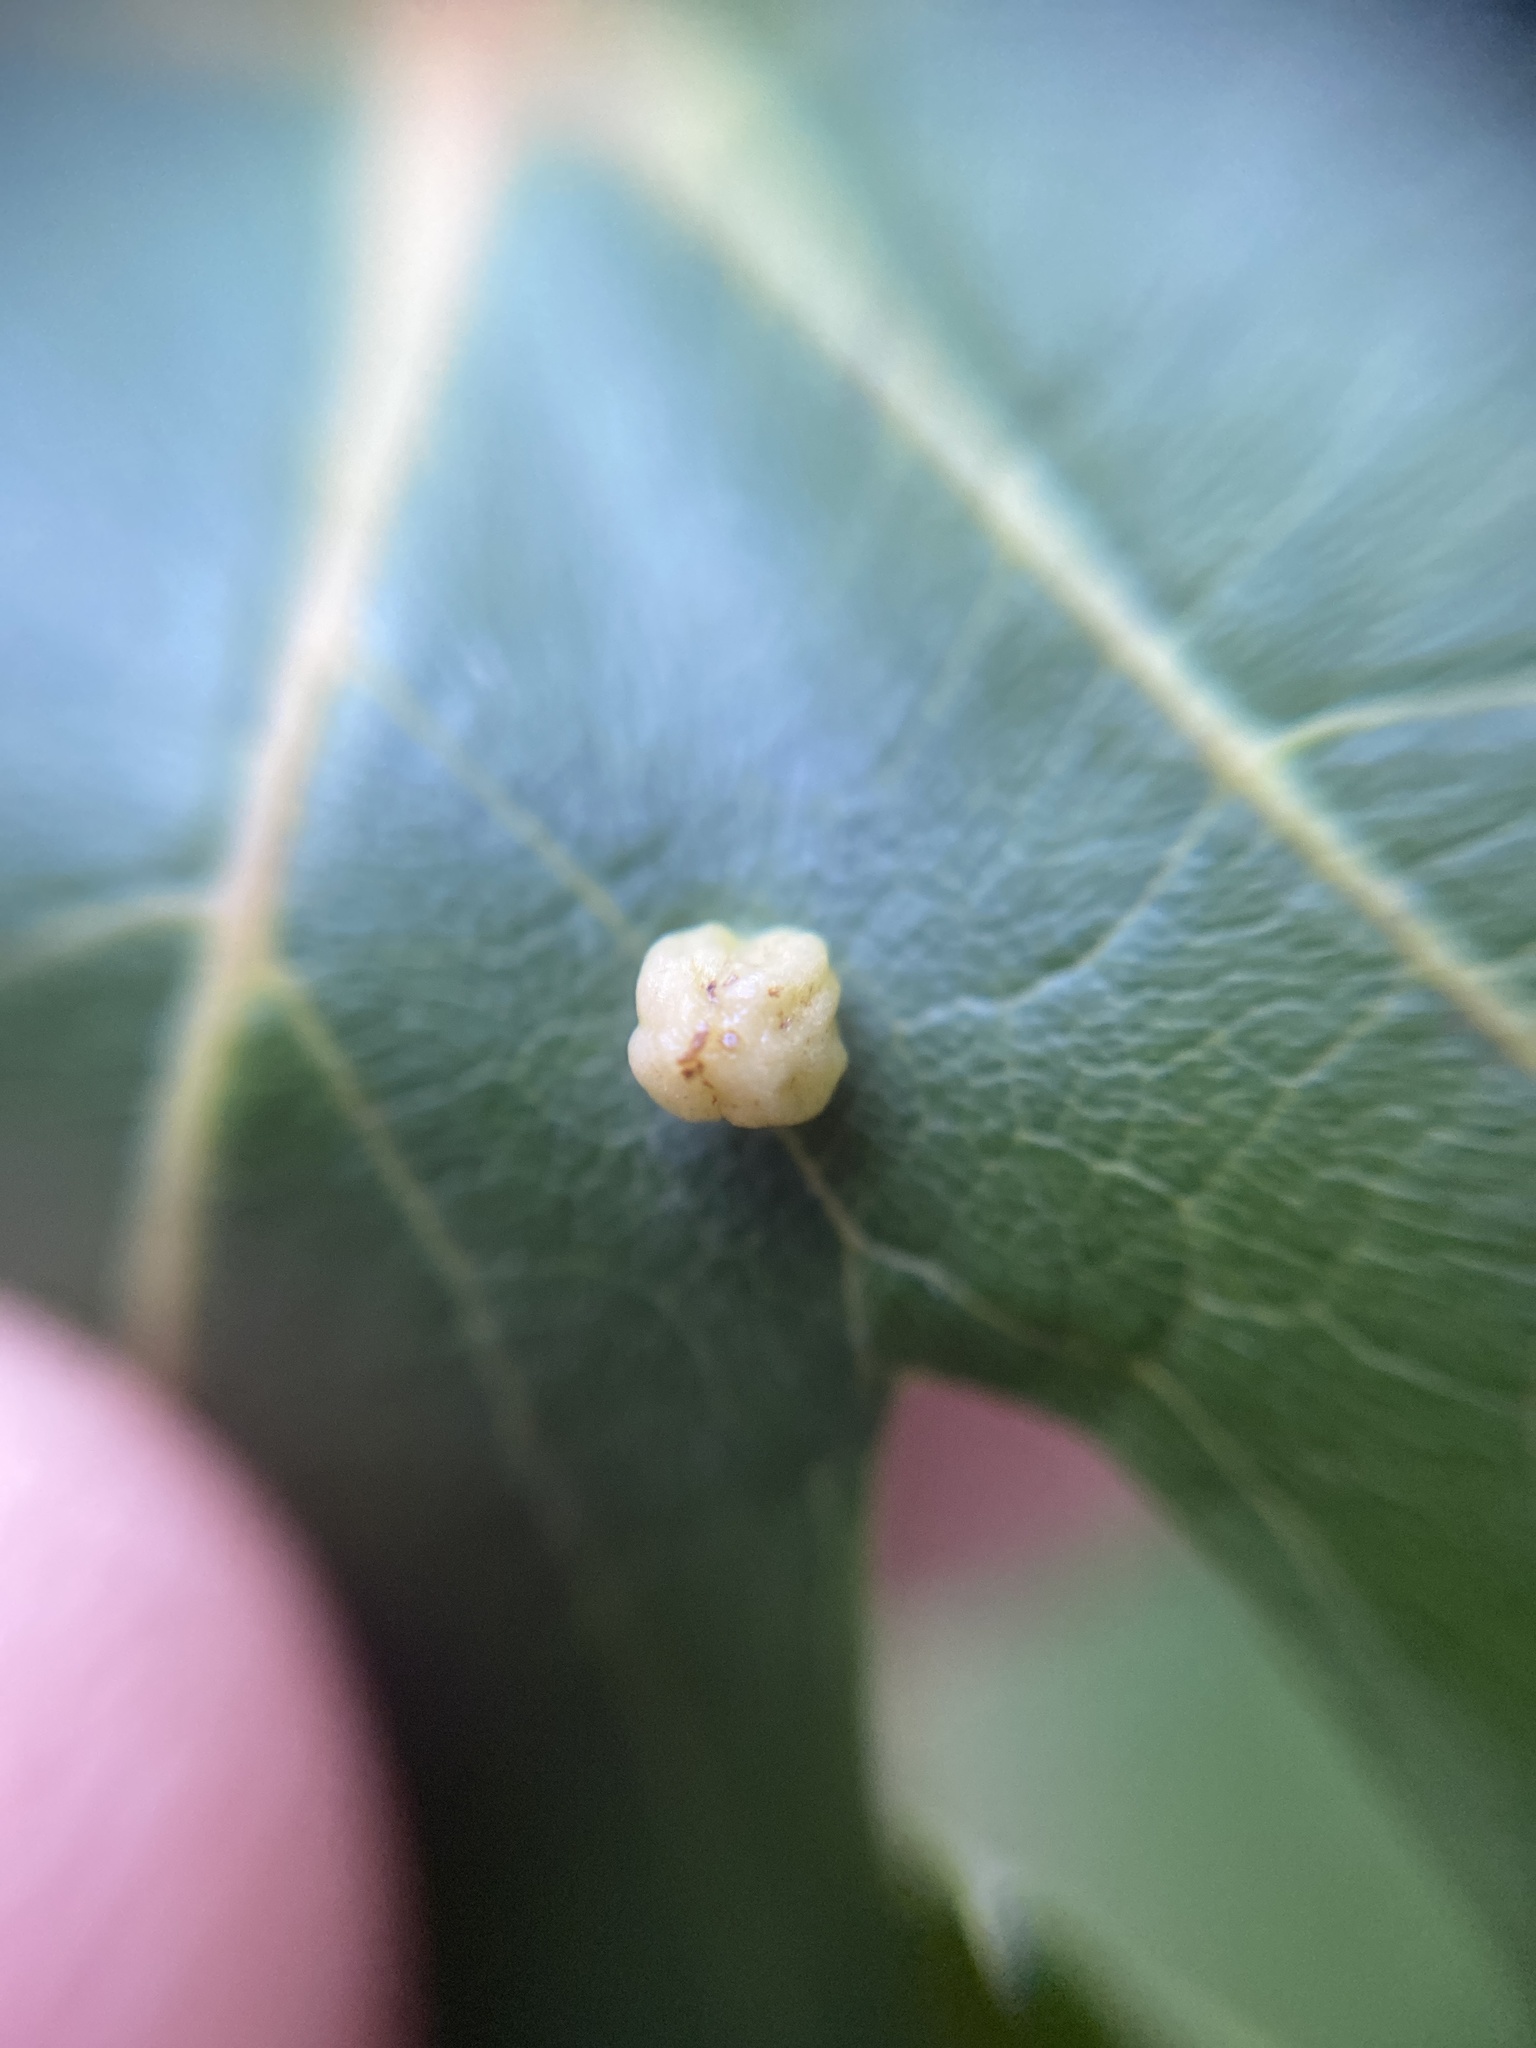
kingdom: Animalia
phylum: Arthropoda
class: Arachnida
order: Trombidiformes
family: Eriophyidae
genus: Vasates
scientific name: Vasates quadripedes
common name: Maple bladder gall mite
